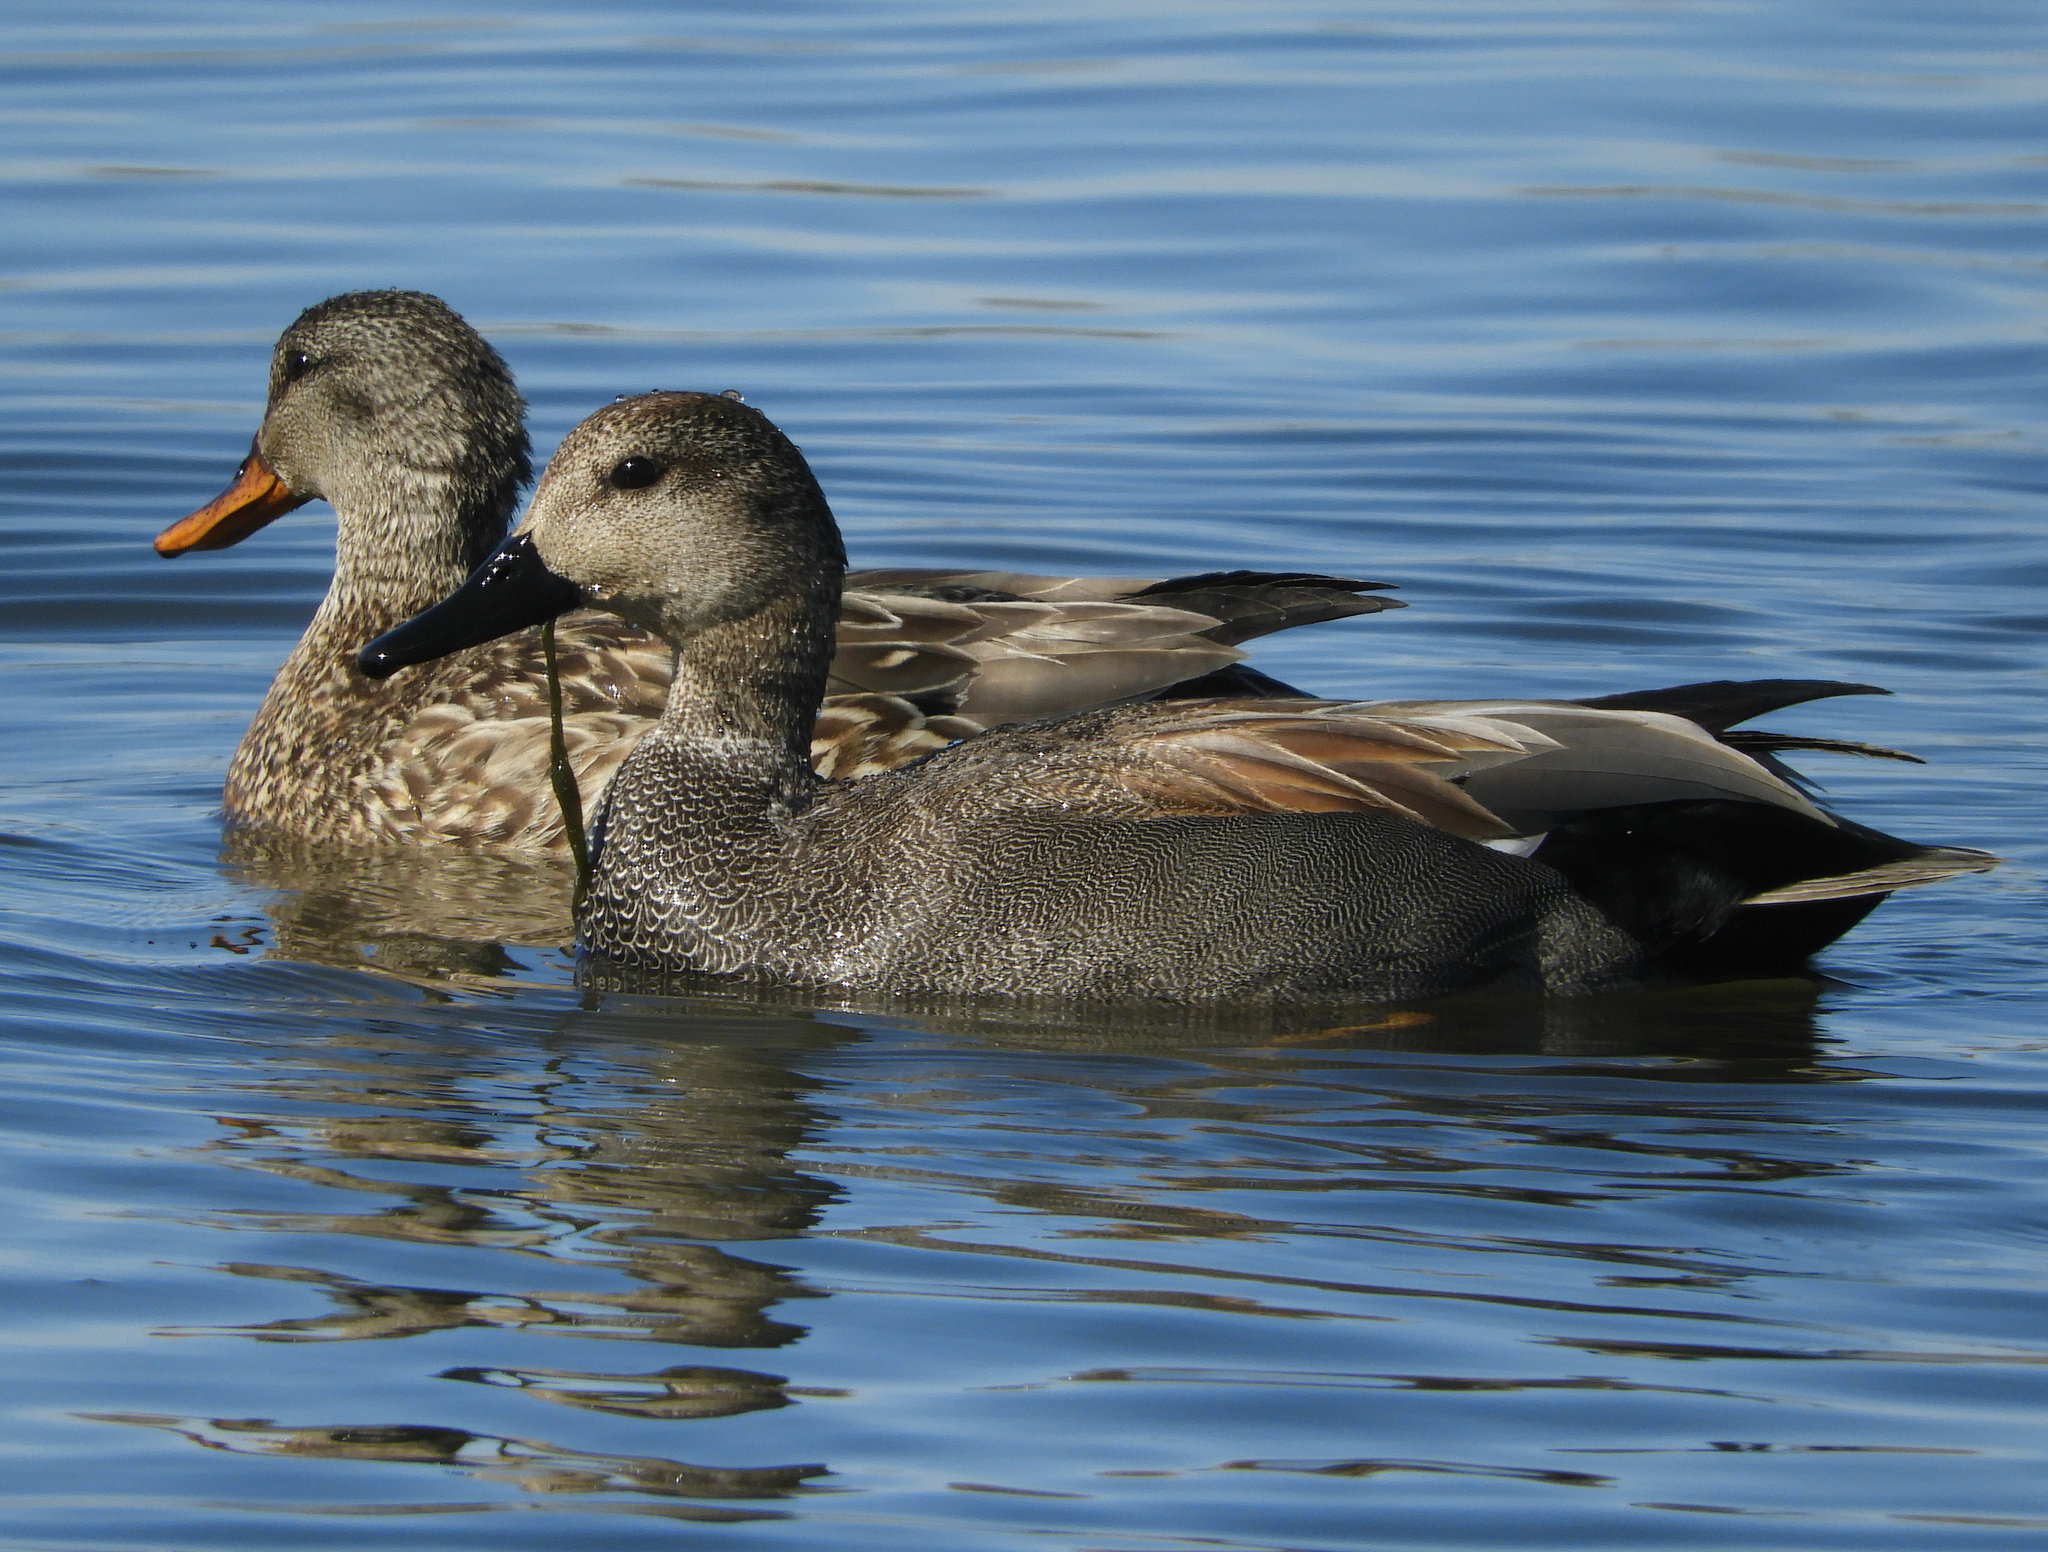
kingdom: Animalia
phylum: Chordata
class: Aves
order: Anseriformes
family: Anatidae
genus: Mareca
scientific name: Mareca strepera
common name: Gadwall
